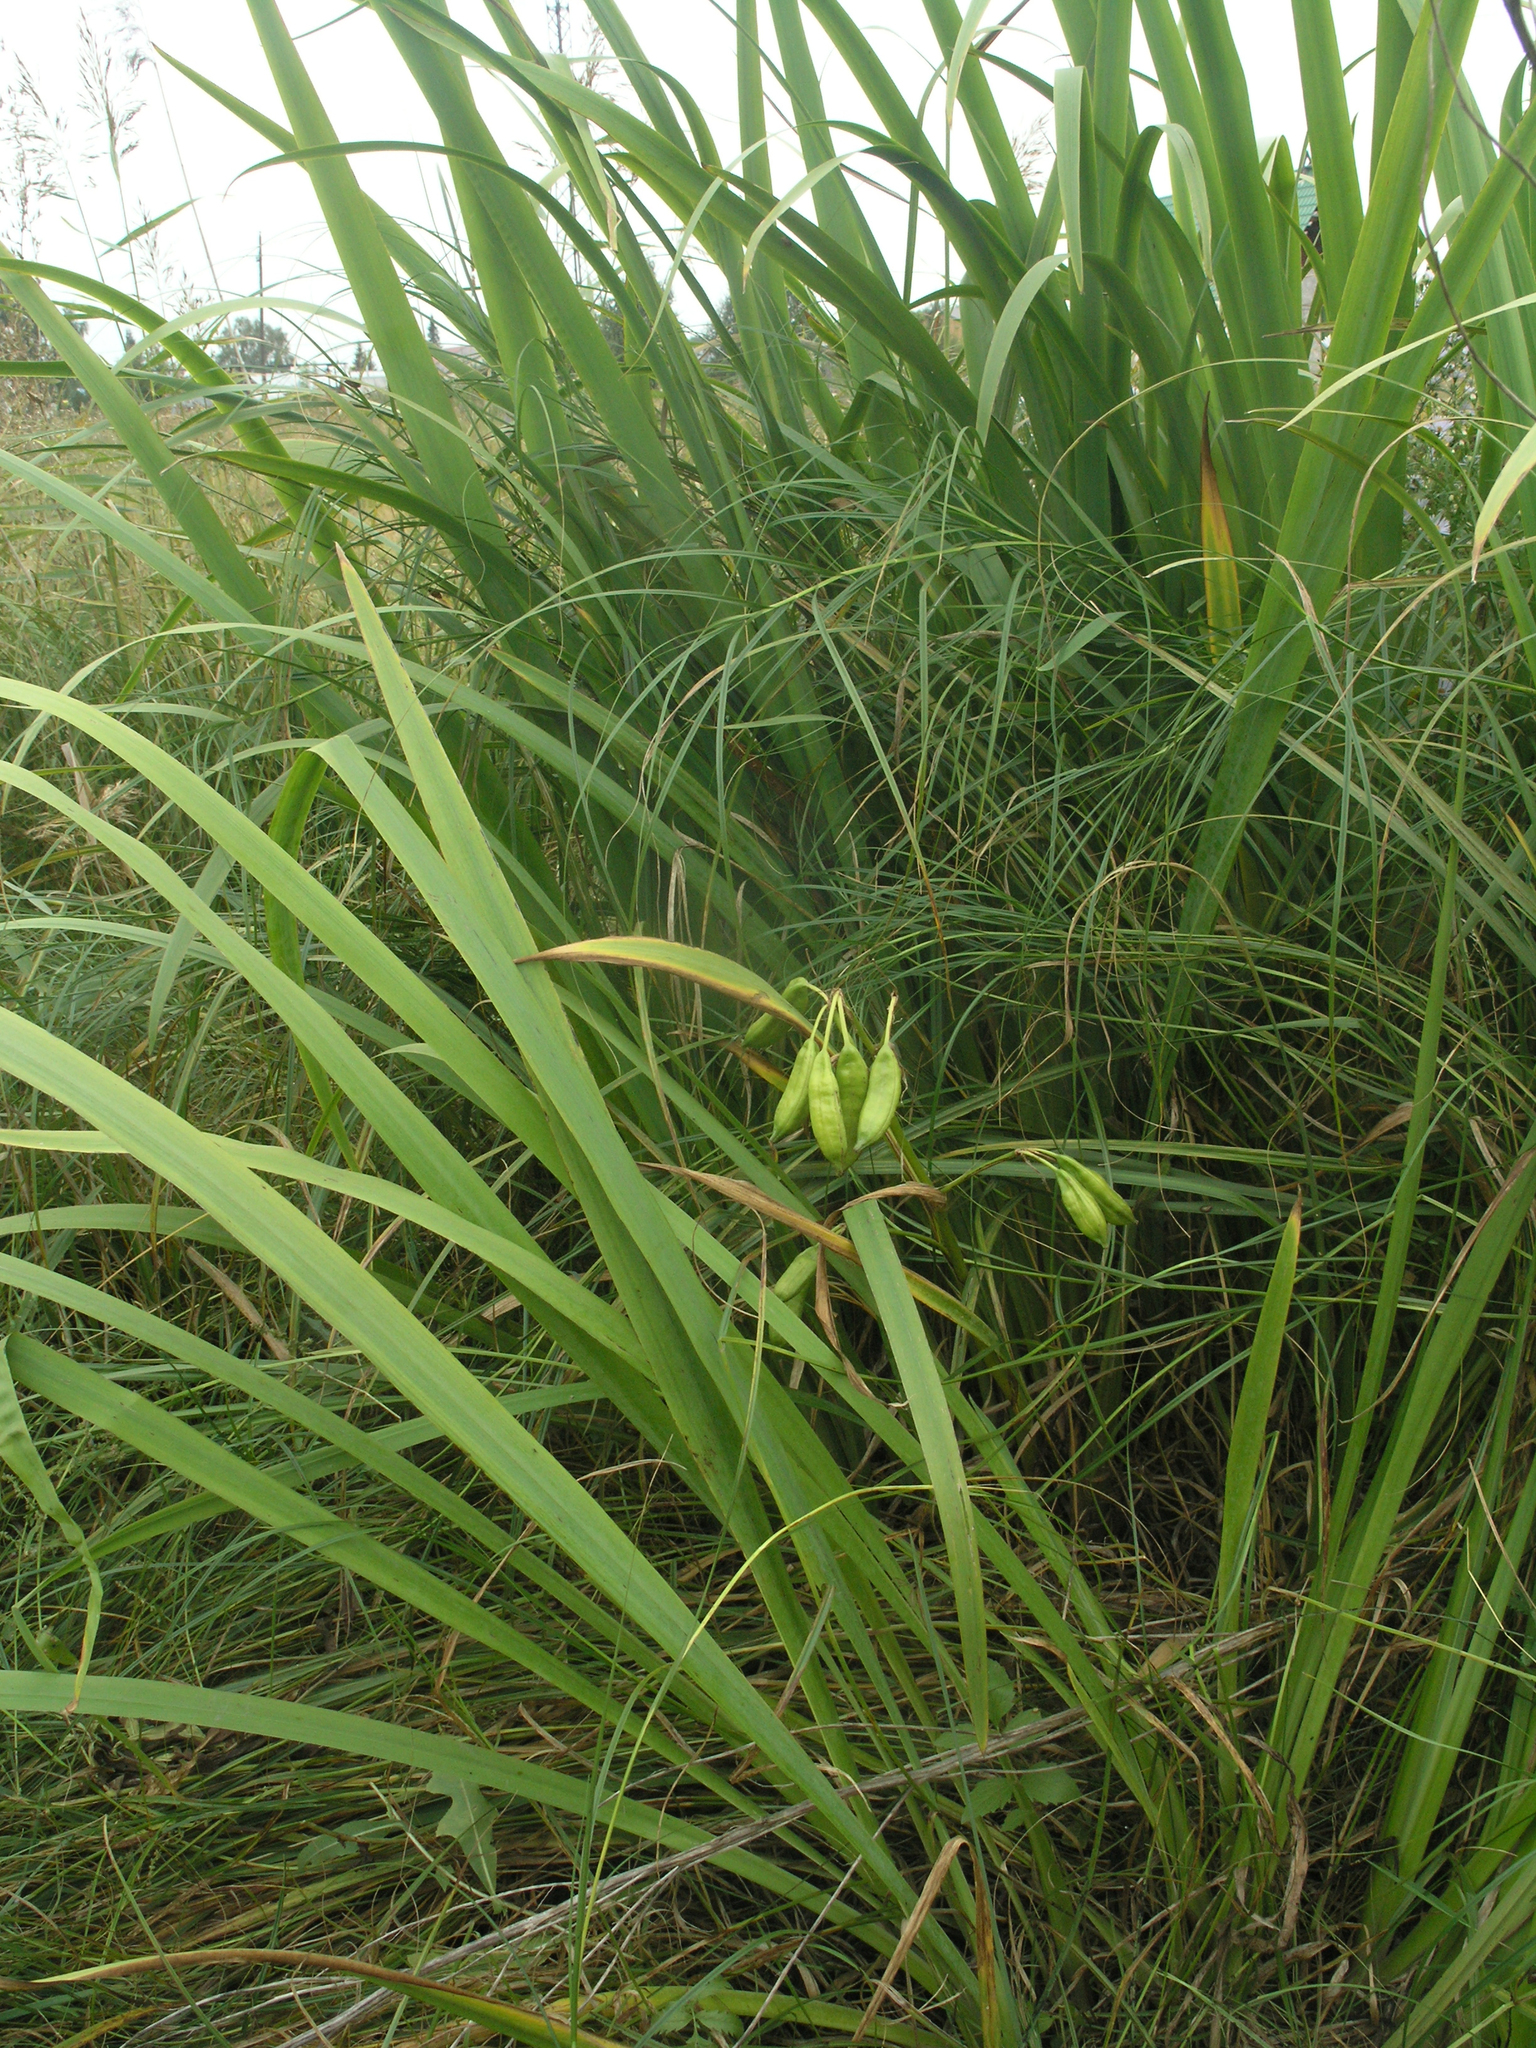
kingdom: Plantae
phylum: Tracheophyta
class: Liliopsida
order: Asparagales
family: Iridaceae
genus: Iris
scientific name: Iris pseudacorus
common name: Yellow flag
